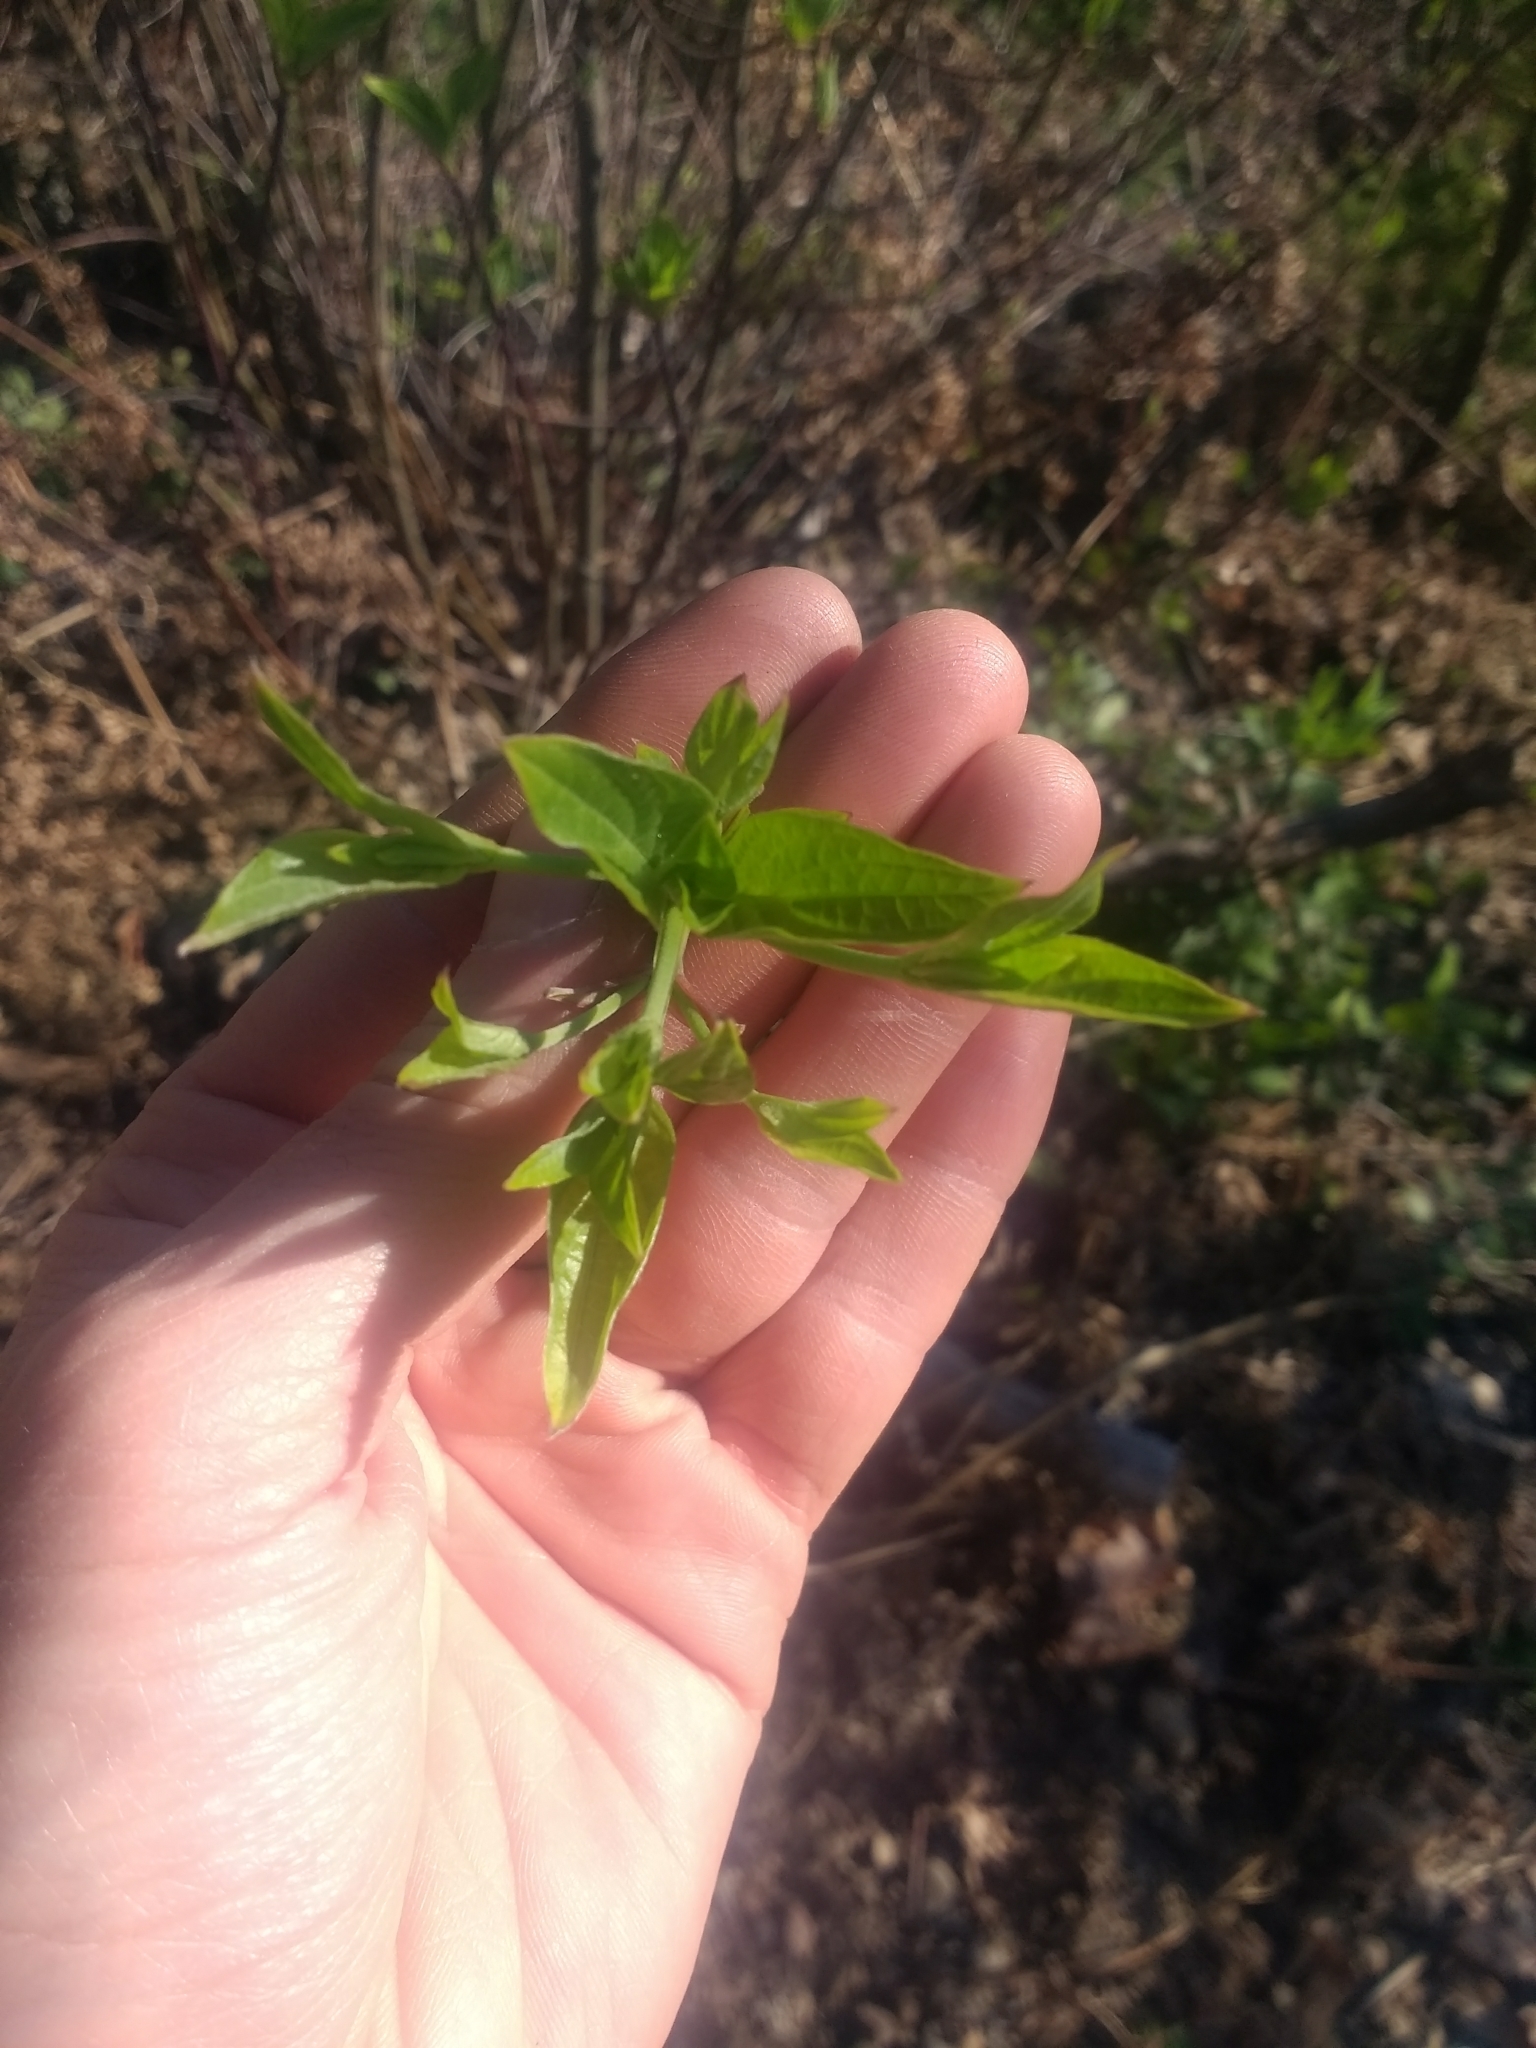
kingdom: Plantae
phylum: Tracheophyta
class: Magnoliopsida
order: Cornales
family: Cornaceae
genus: Cornus
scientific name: Cornus sericea
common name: Red-osier dogwood
